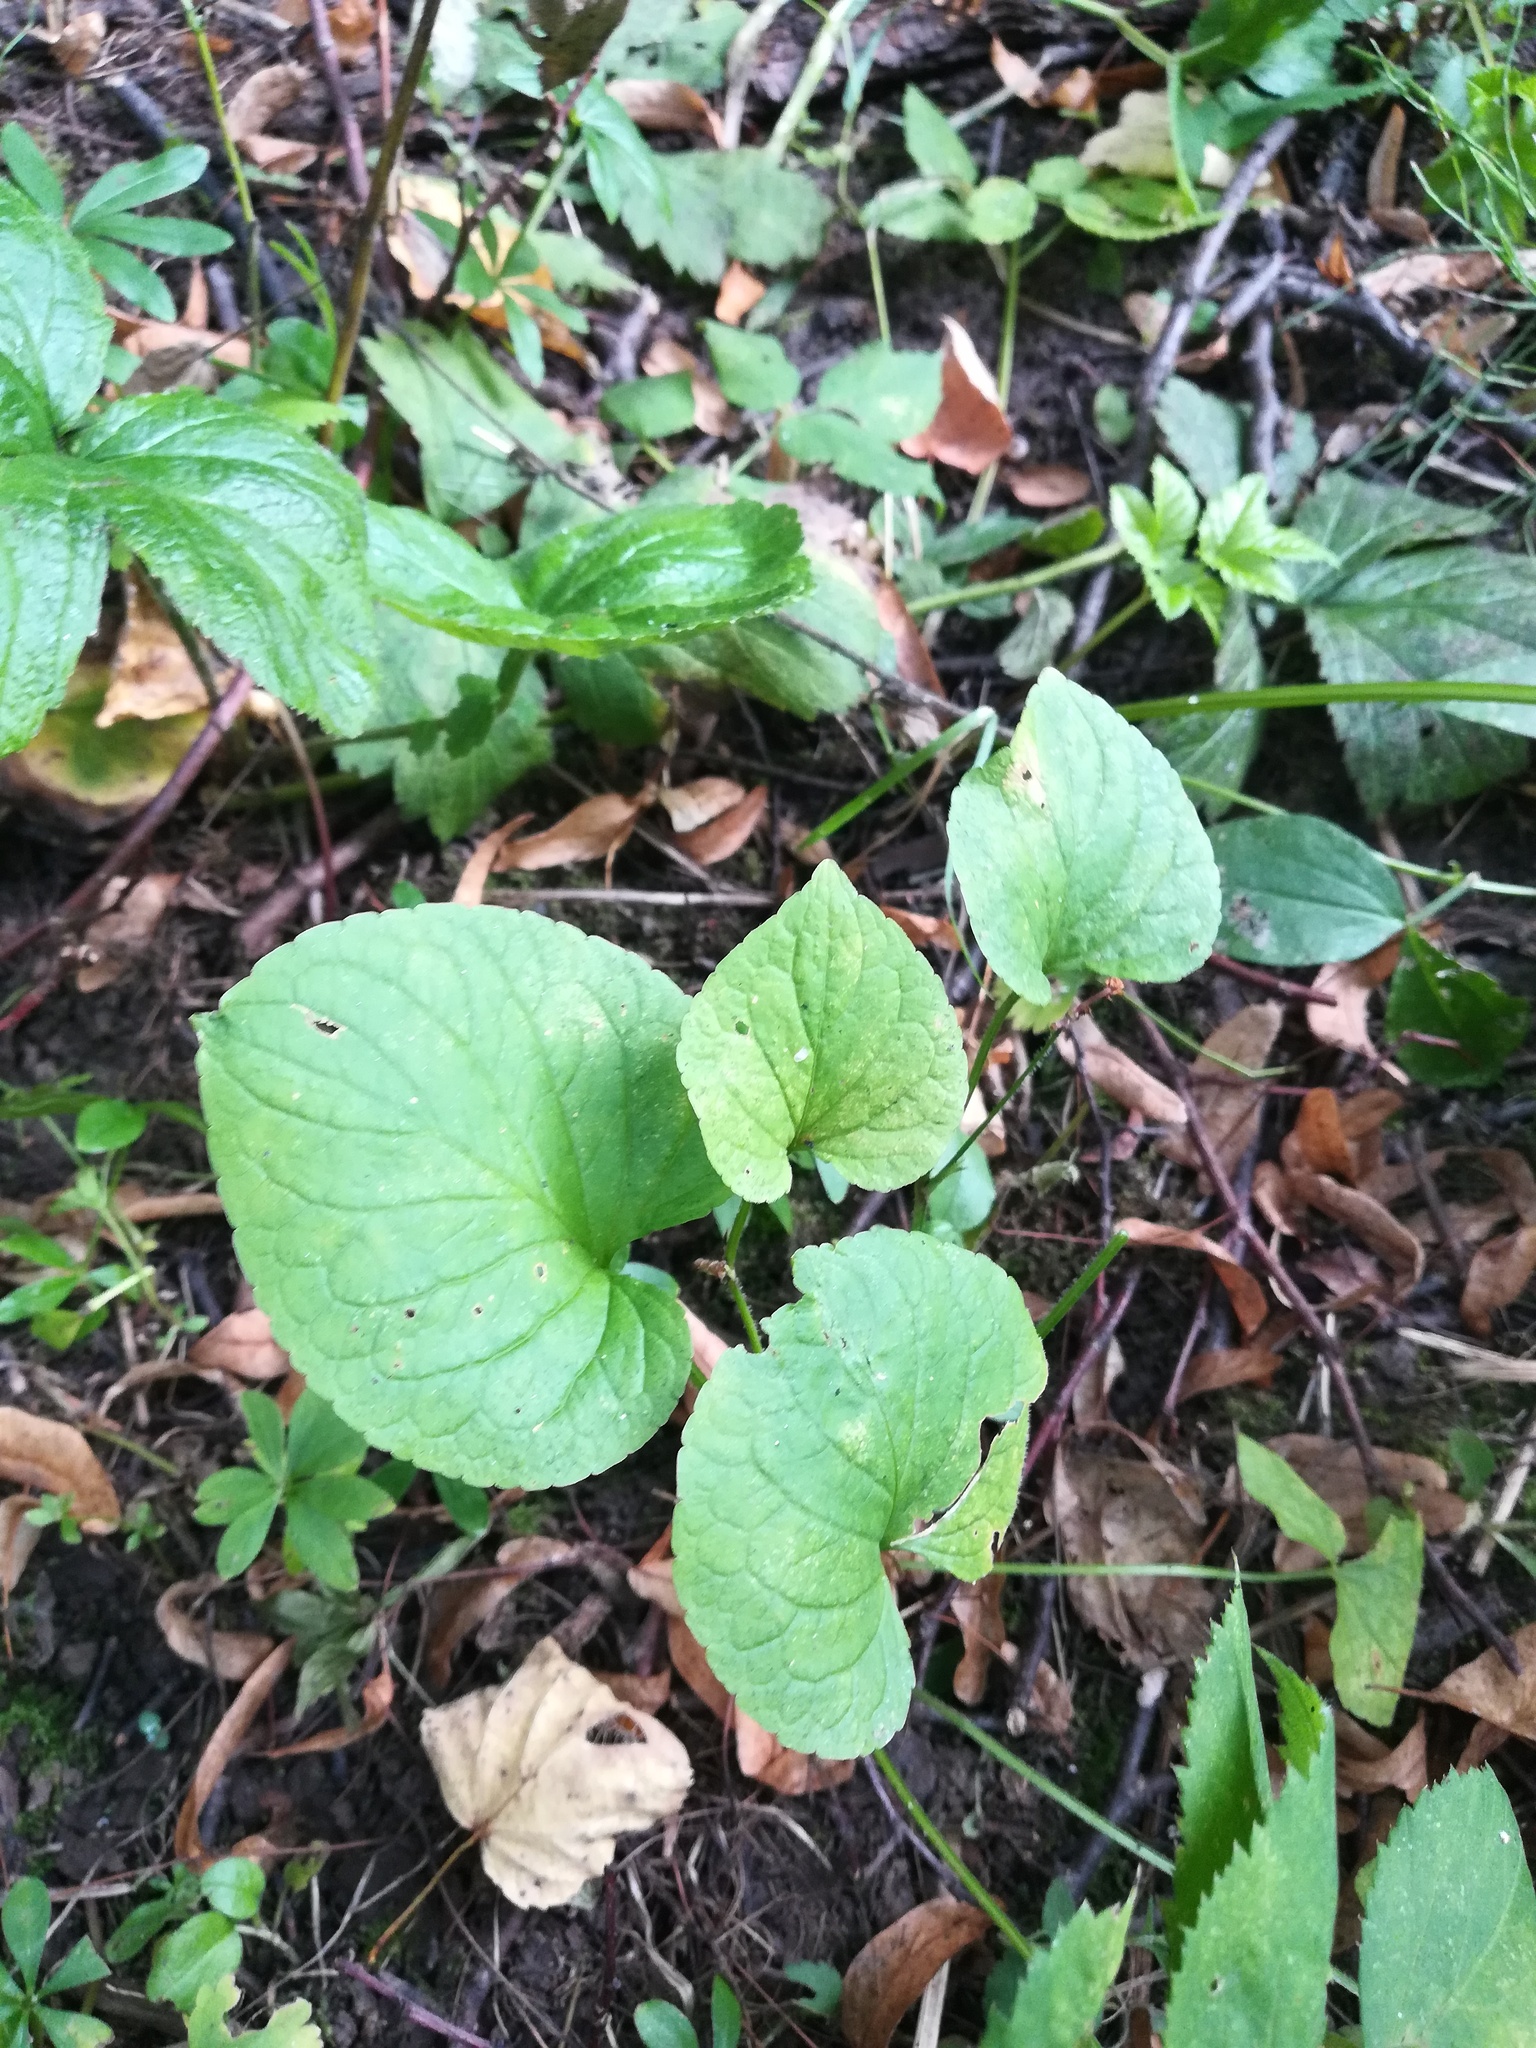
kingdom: Plantae
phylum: Tracheophyta
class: Magnoliopsida
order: Malpighiales
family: Violaceae
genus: Viola
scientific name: Viola mirabilis
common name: Wonder violet
